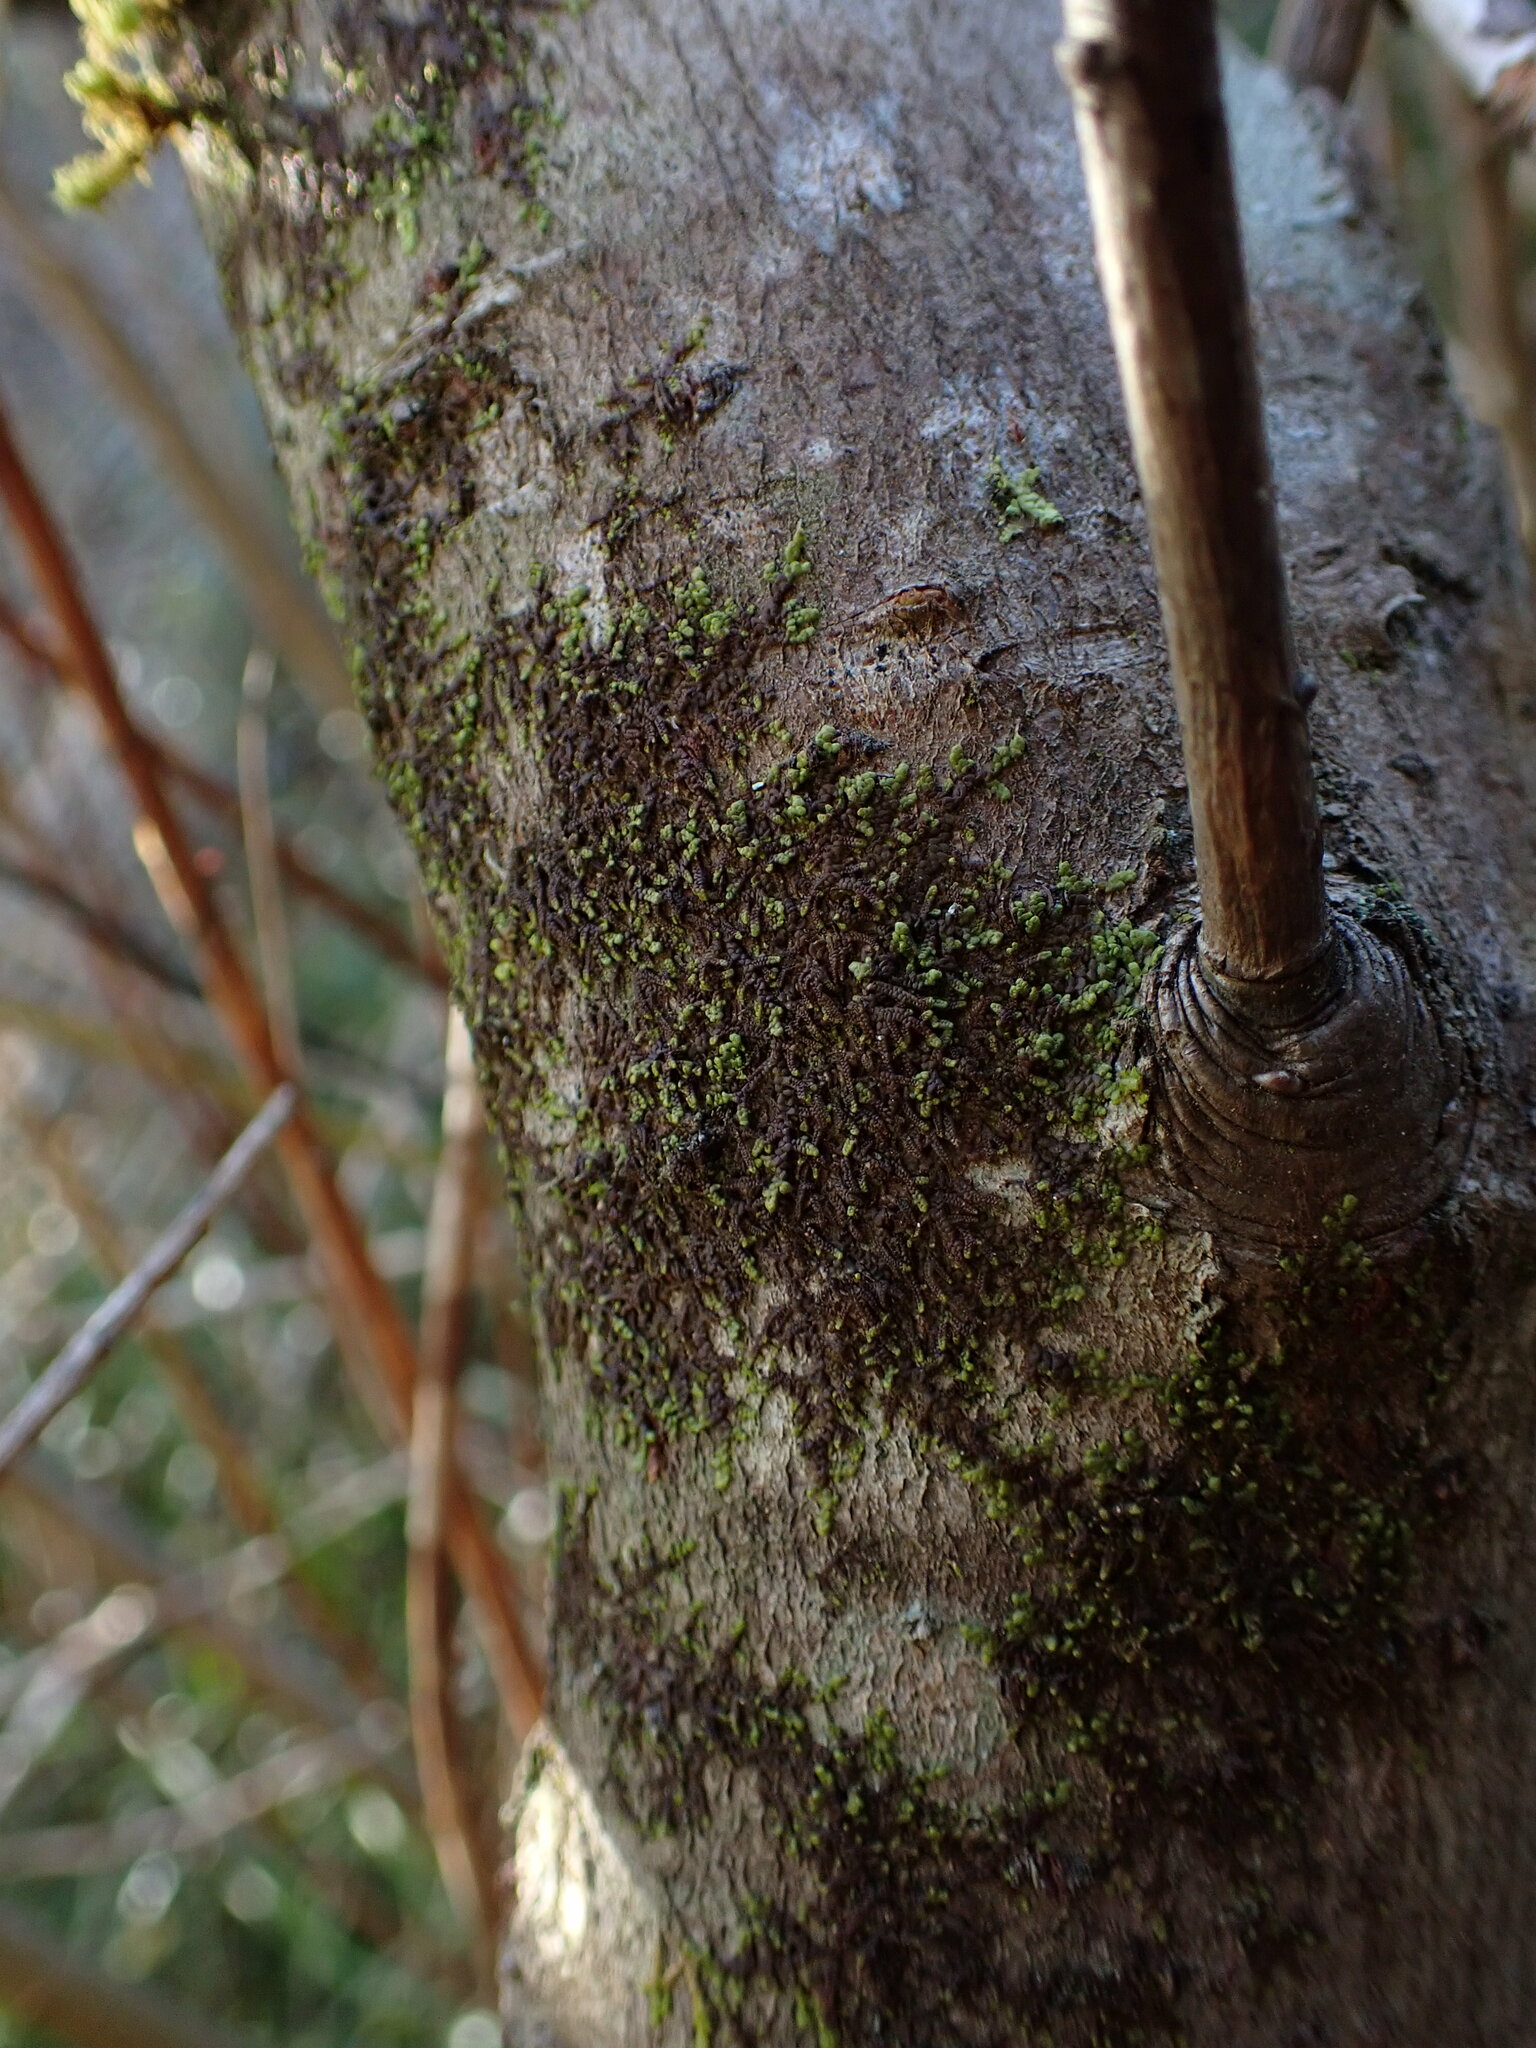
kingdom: Plantae
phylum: Marchantiophyta
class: Jungermanniopsida
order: Porellales
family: Frullaniaceae
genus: Frullania
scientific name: Frullania nisquallensis
